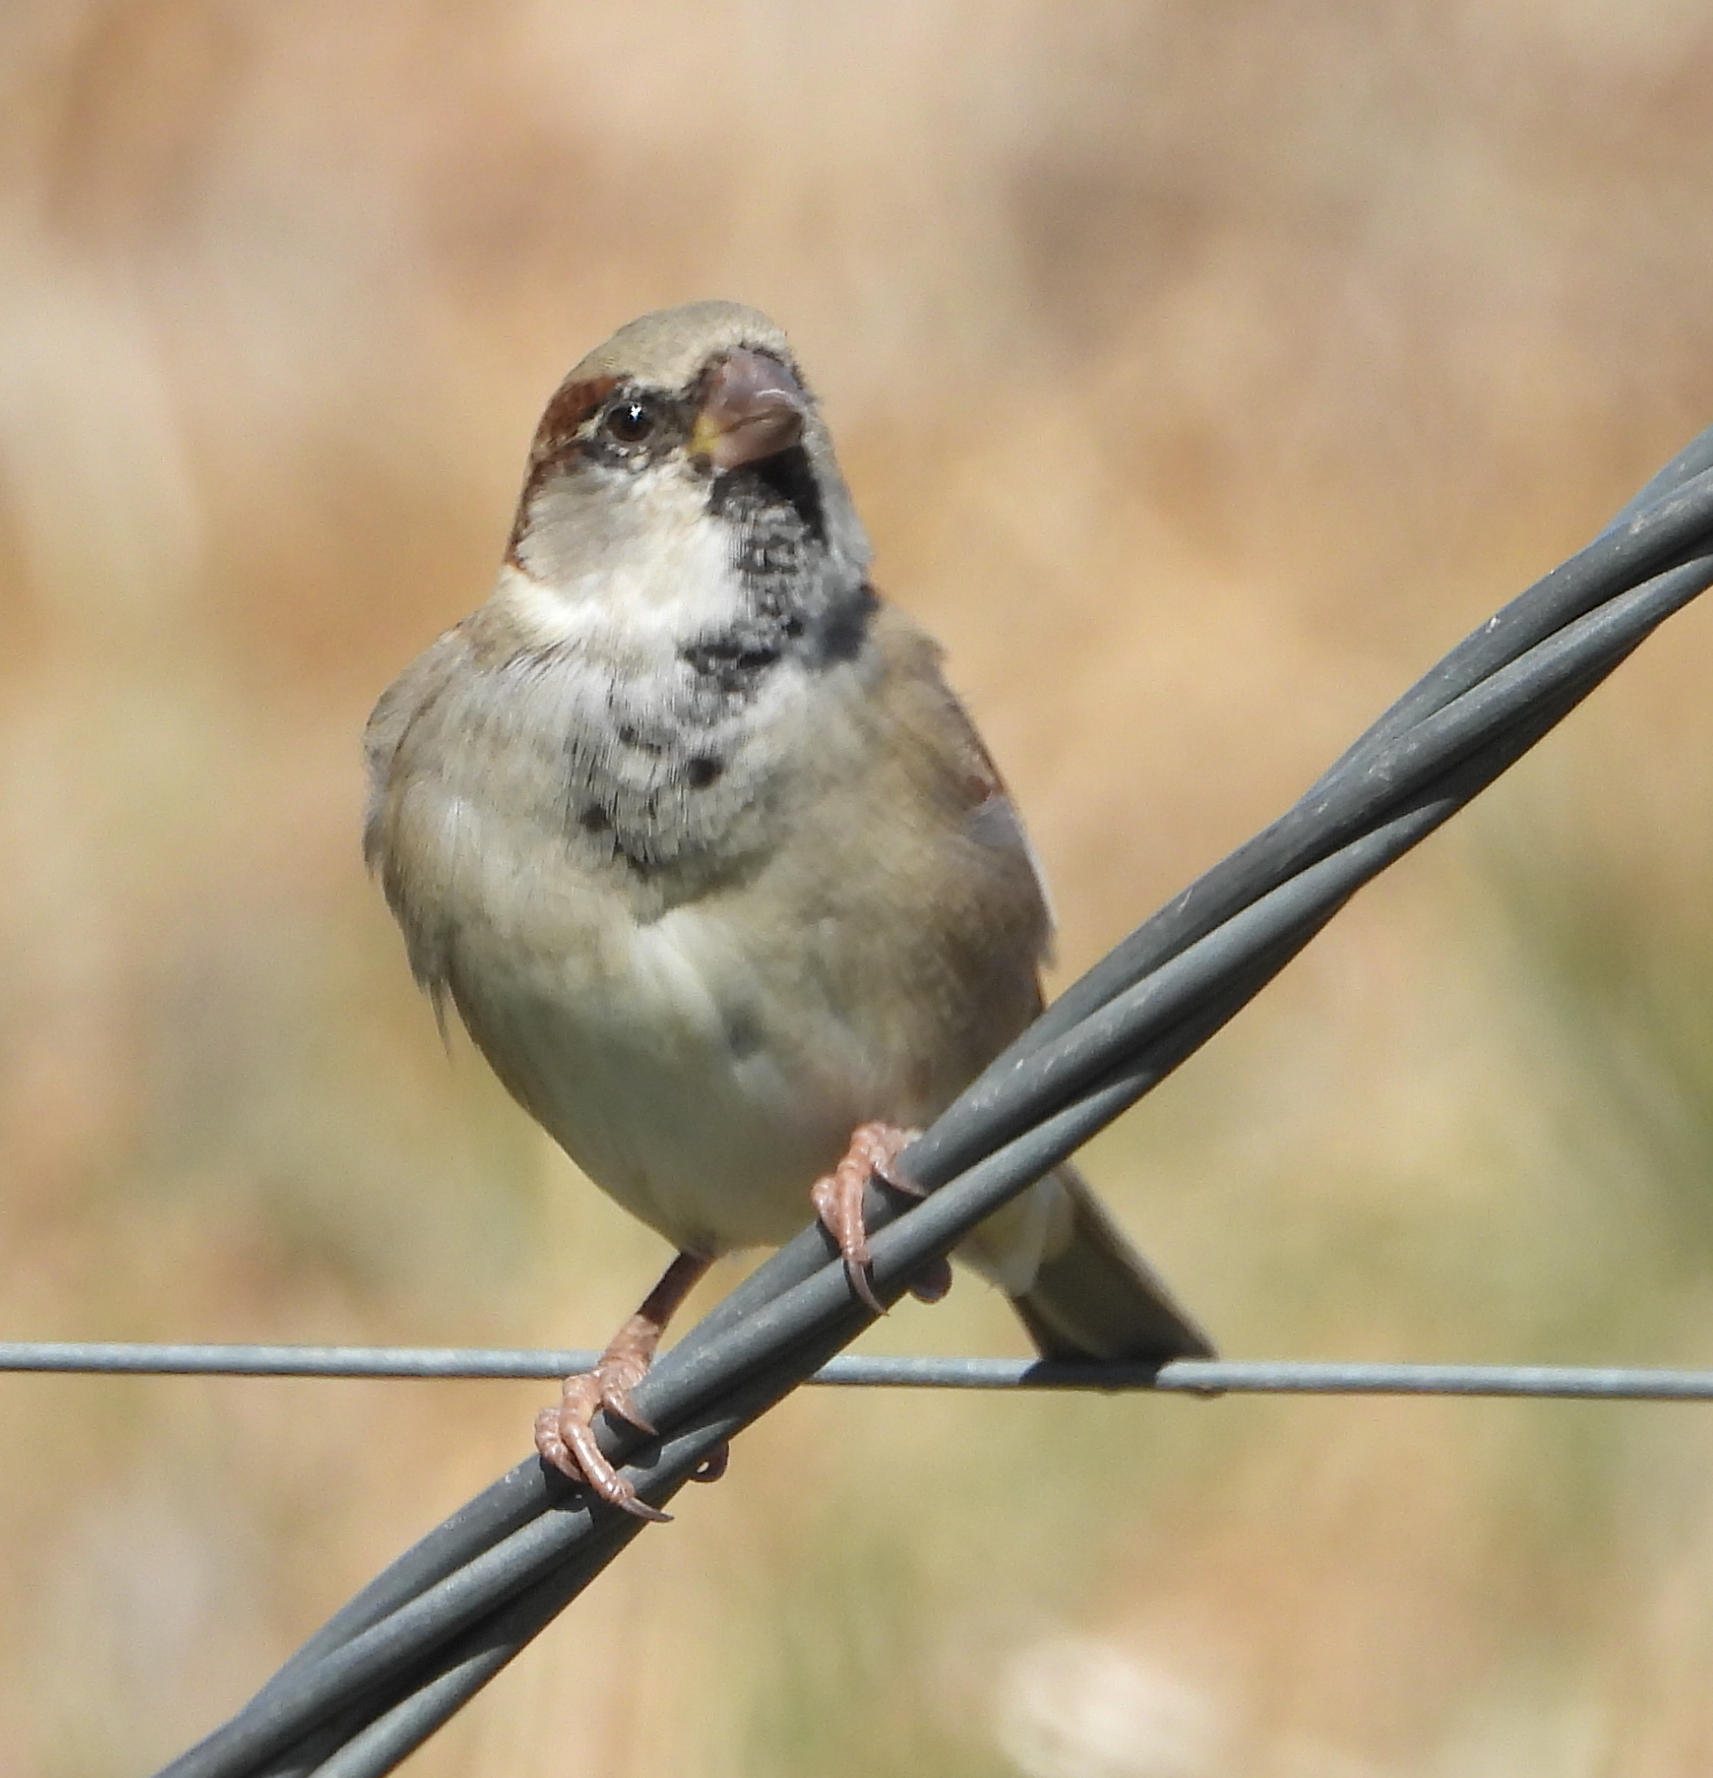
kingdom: Animalia
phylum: Chordata
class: Aves
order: Passeriformes
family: Passeridae
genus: Passer
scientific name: Passer domesticus
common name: House sparrow
